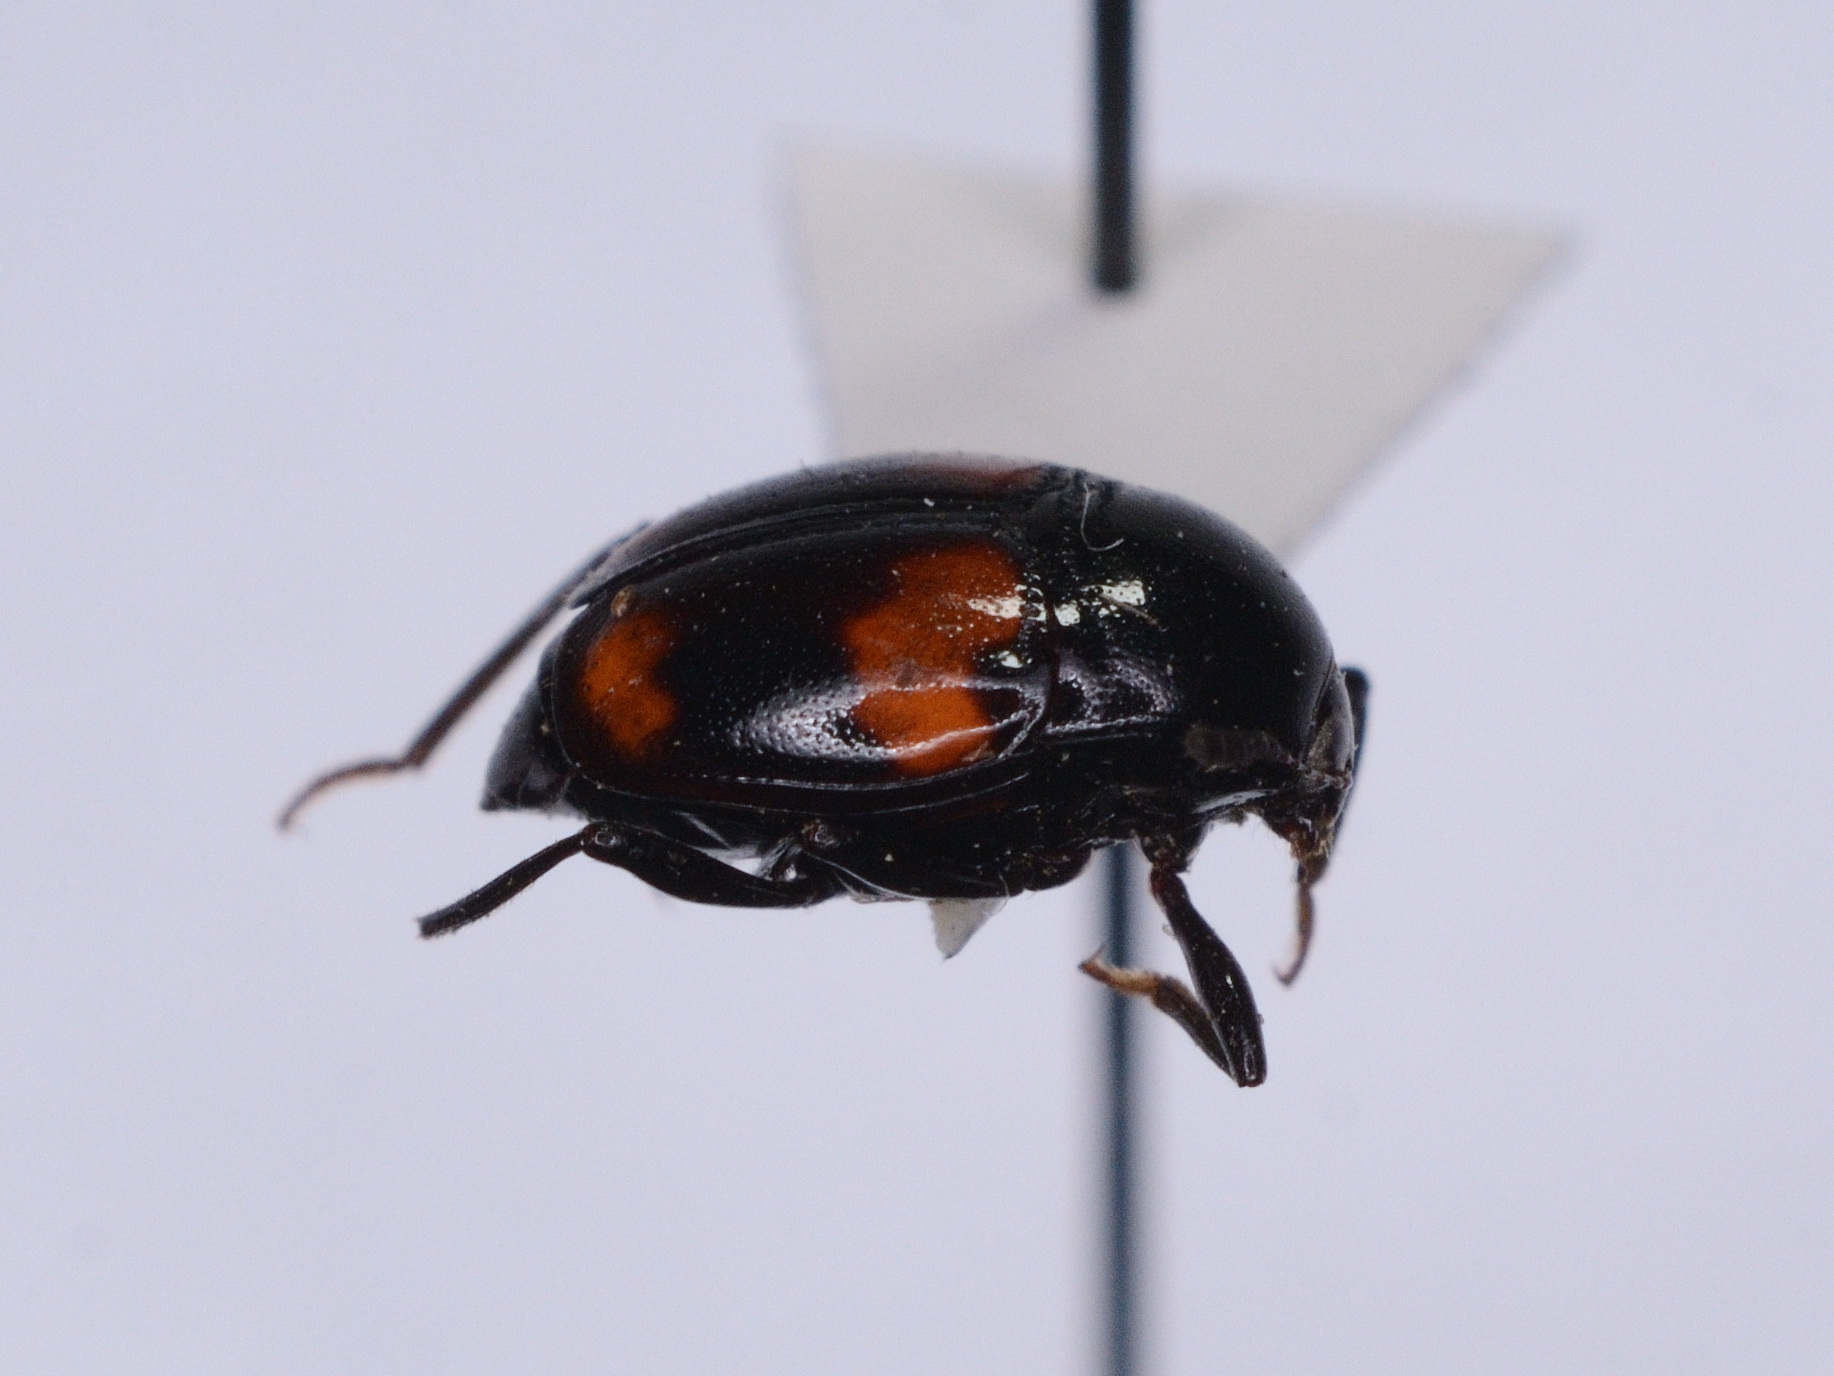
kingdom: Animalia
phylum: Arthropoda
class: Insecta
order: Coleoptera
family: Staphylinidae
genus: Scaphidium
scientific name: Scaphidium quadrimaculatum
